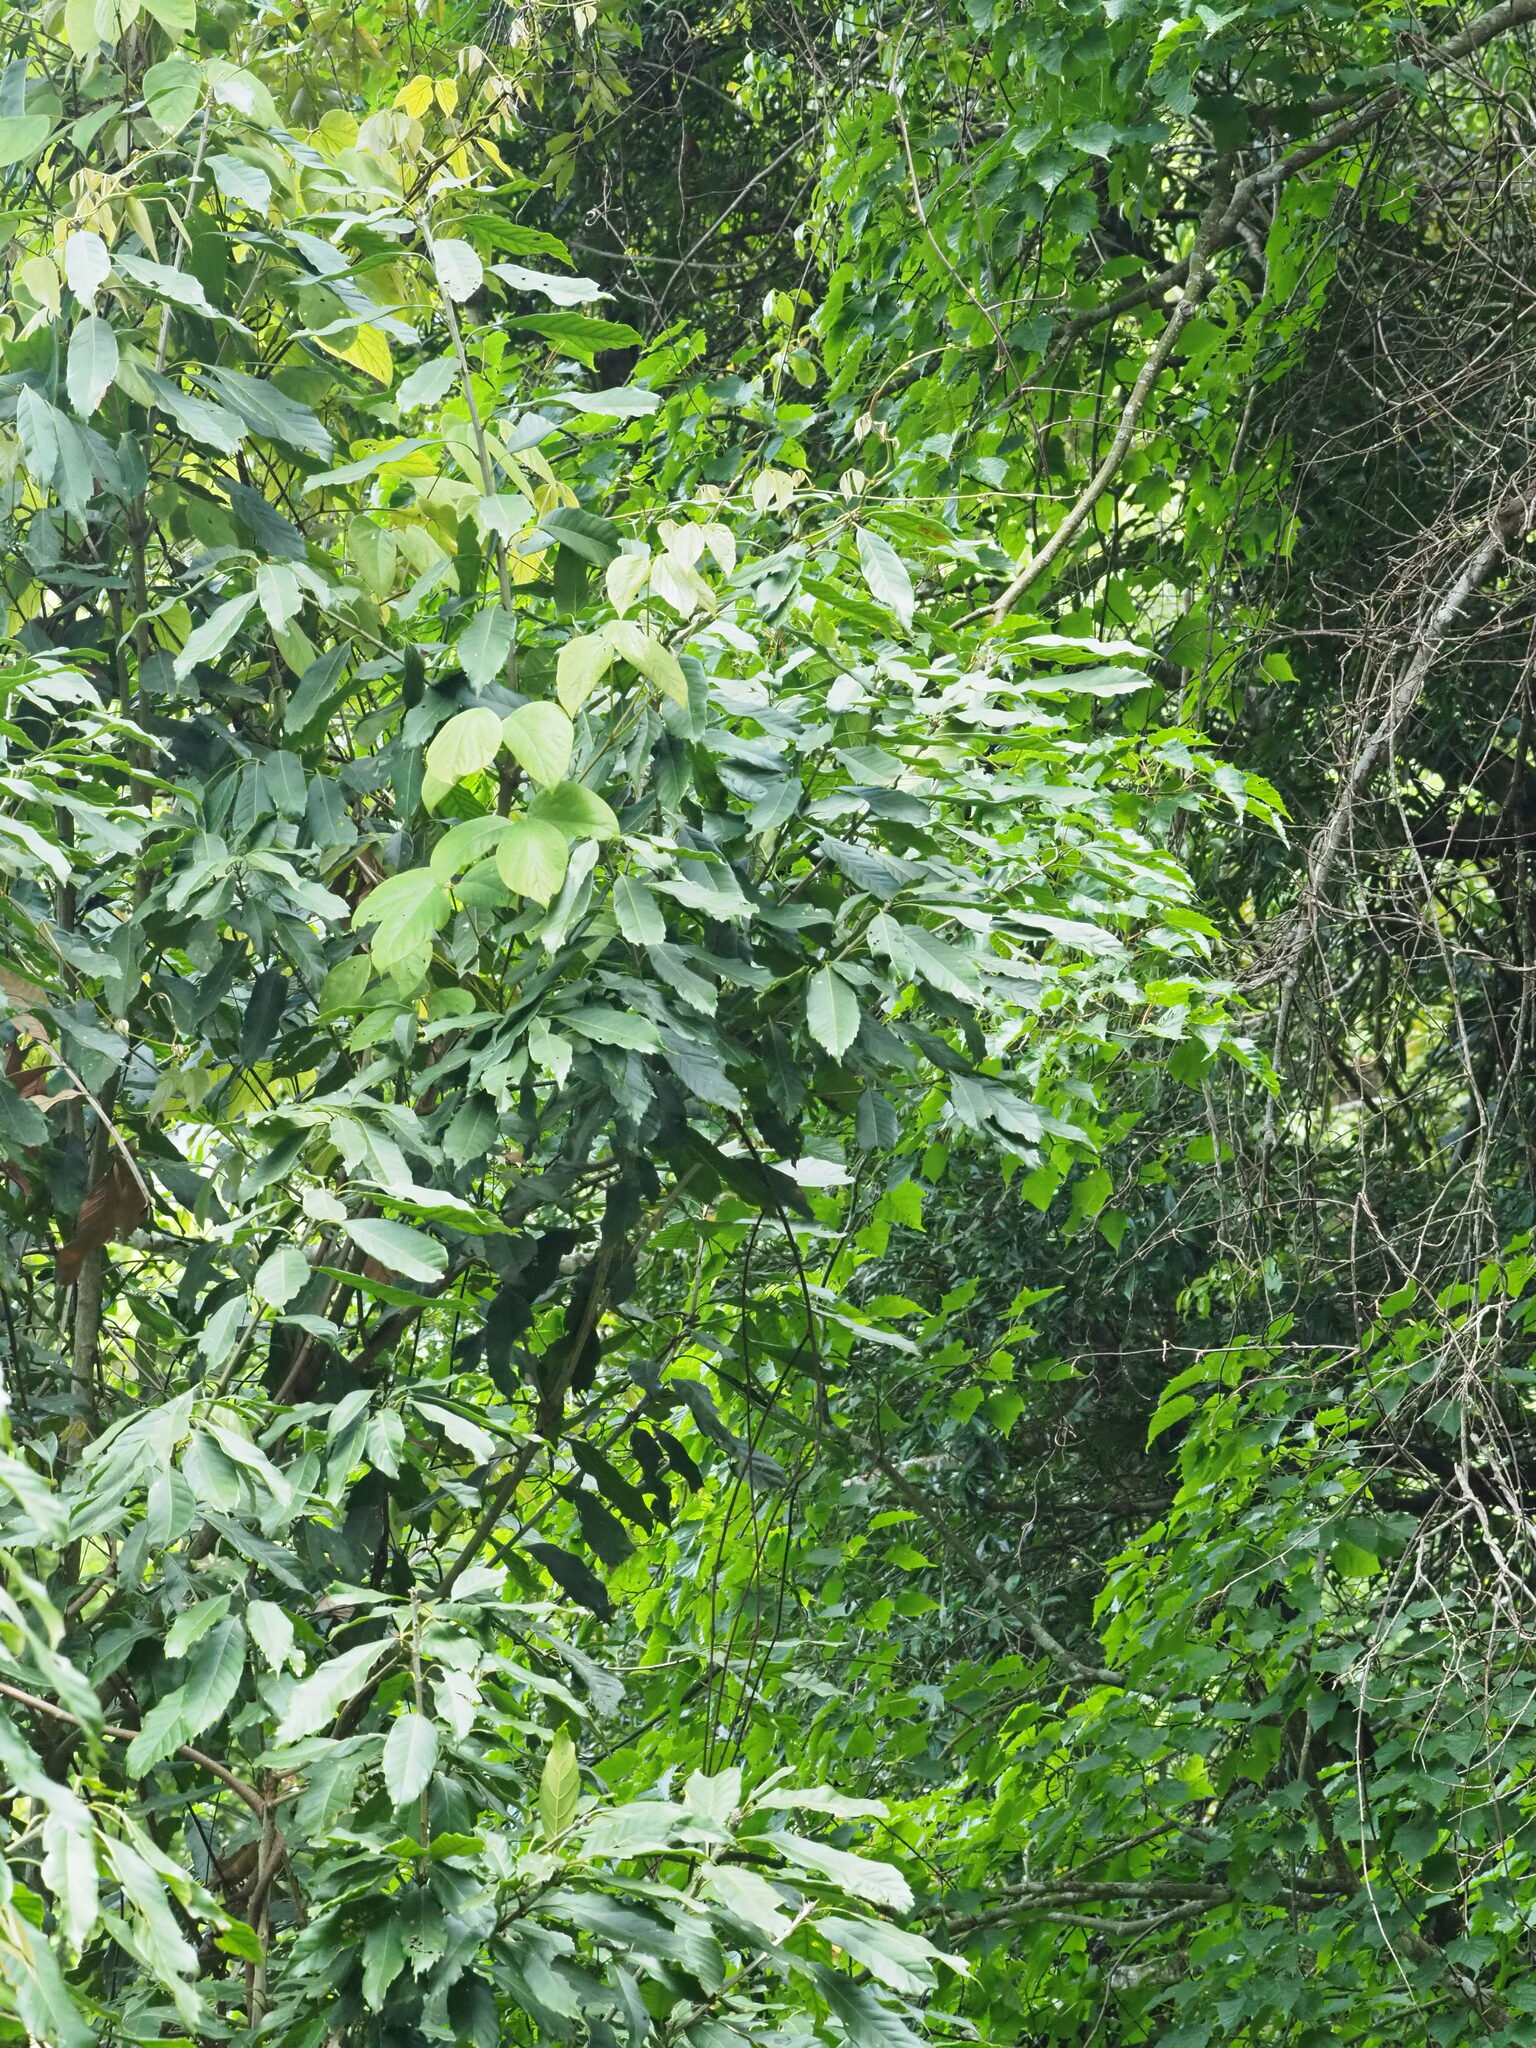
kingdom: Plantae
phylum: Tracheophyta
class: Magnoliopsida
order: Fagales
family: Fagaceae
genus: Lithocarpus
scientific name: Lithocarpus kawakamii
